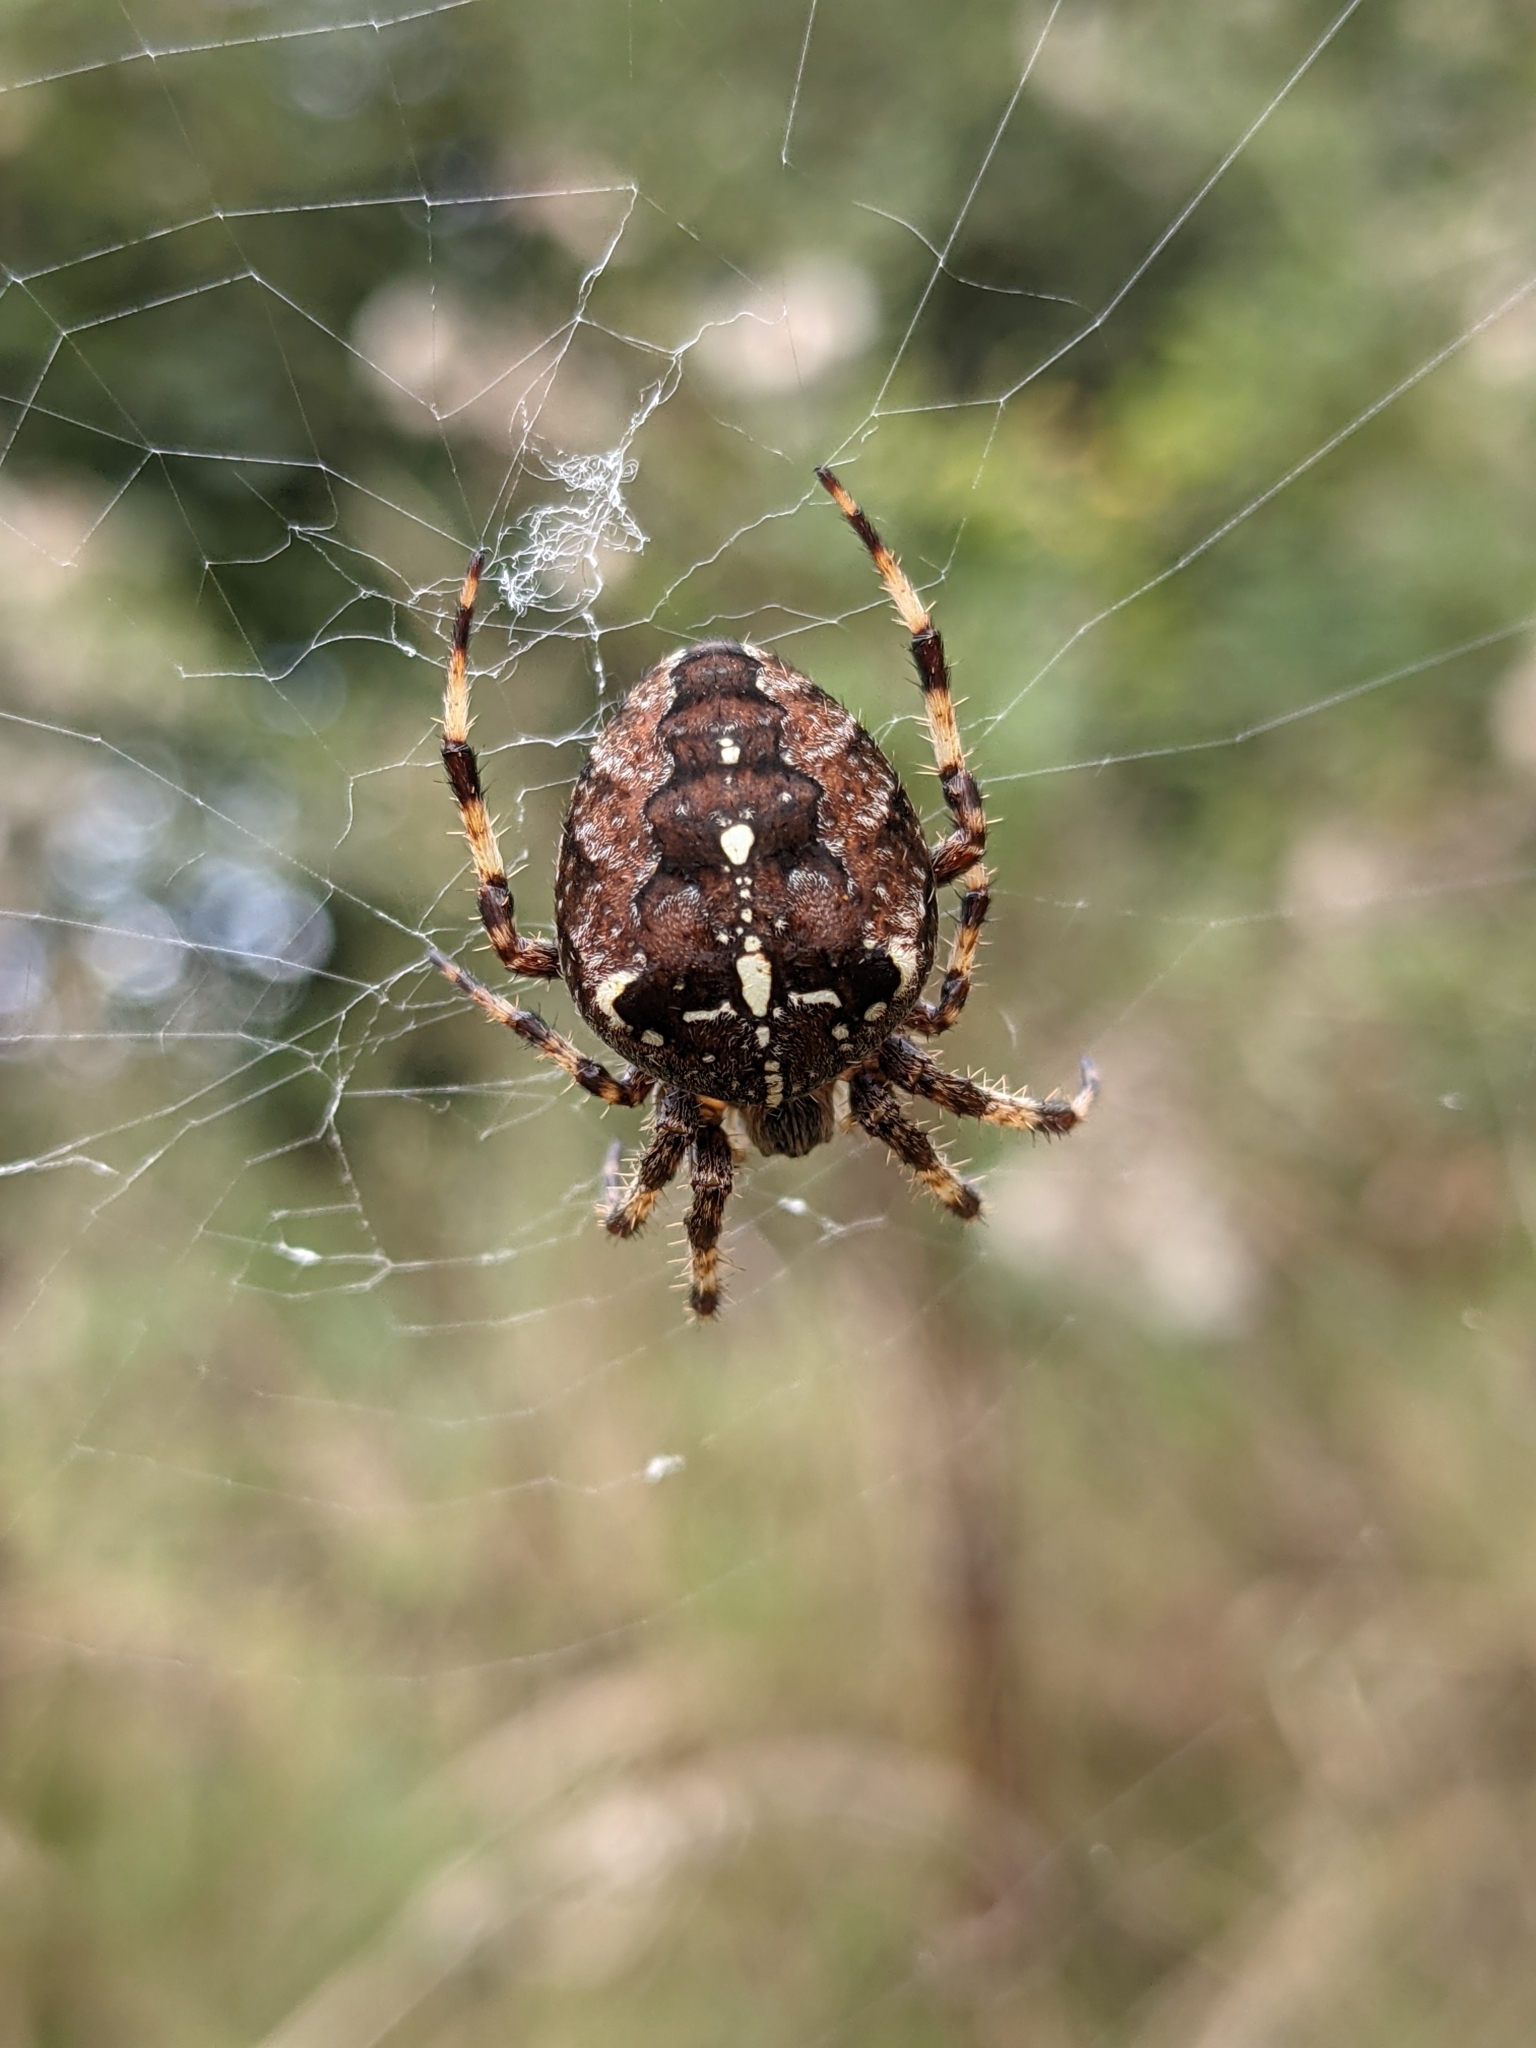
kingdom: Animalia
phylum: Arthropoda
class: Arachnida
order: Araneae
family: Araneidae
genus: Araneus
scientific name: Araneus diadematus
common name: Cross orbweaver
